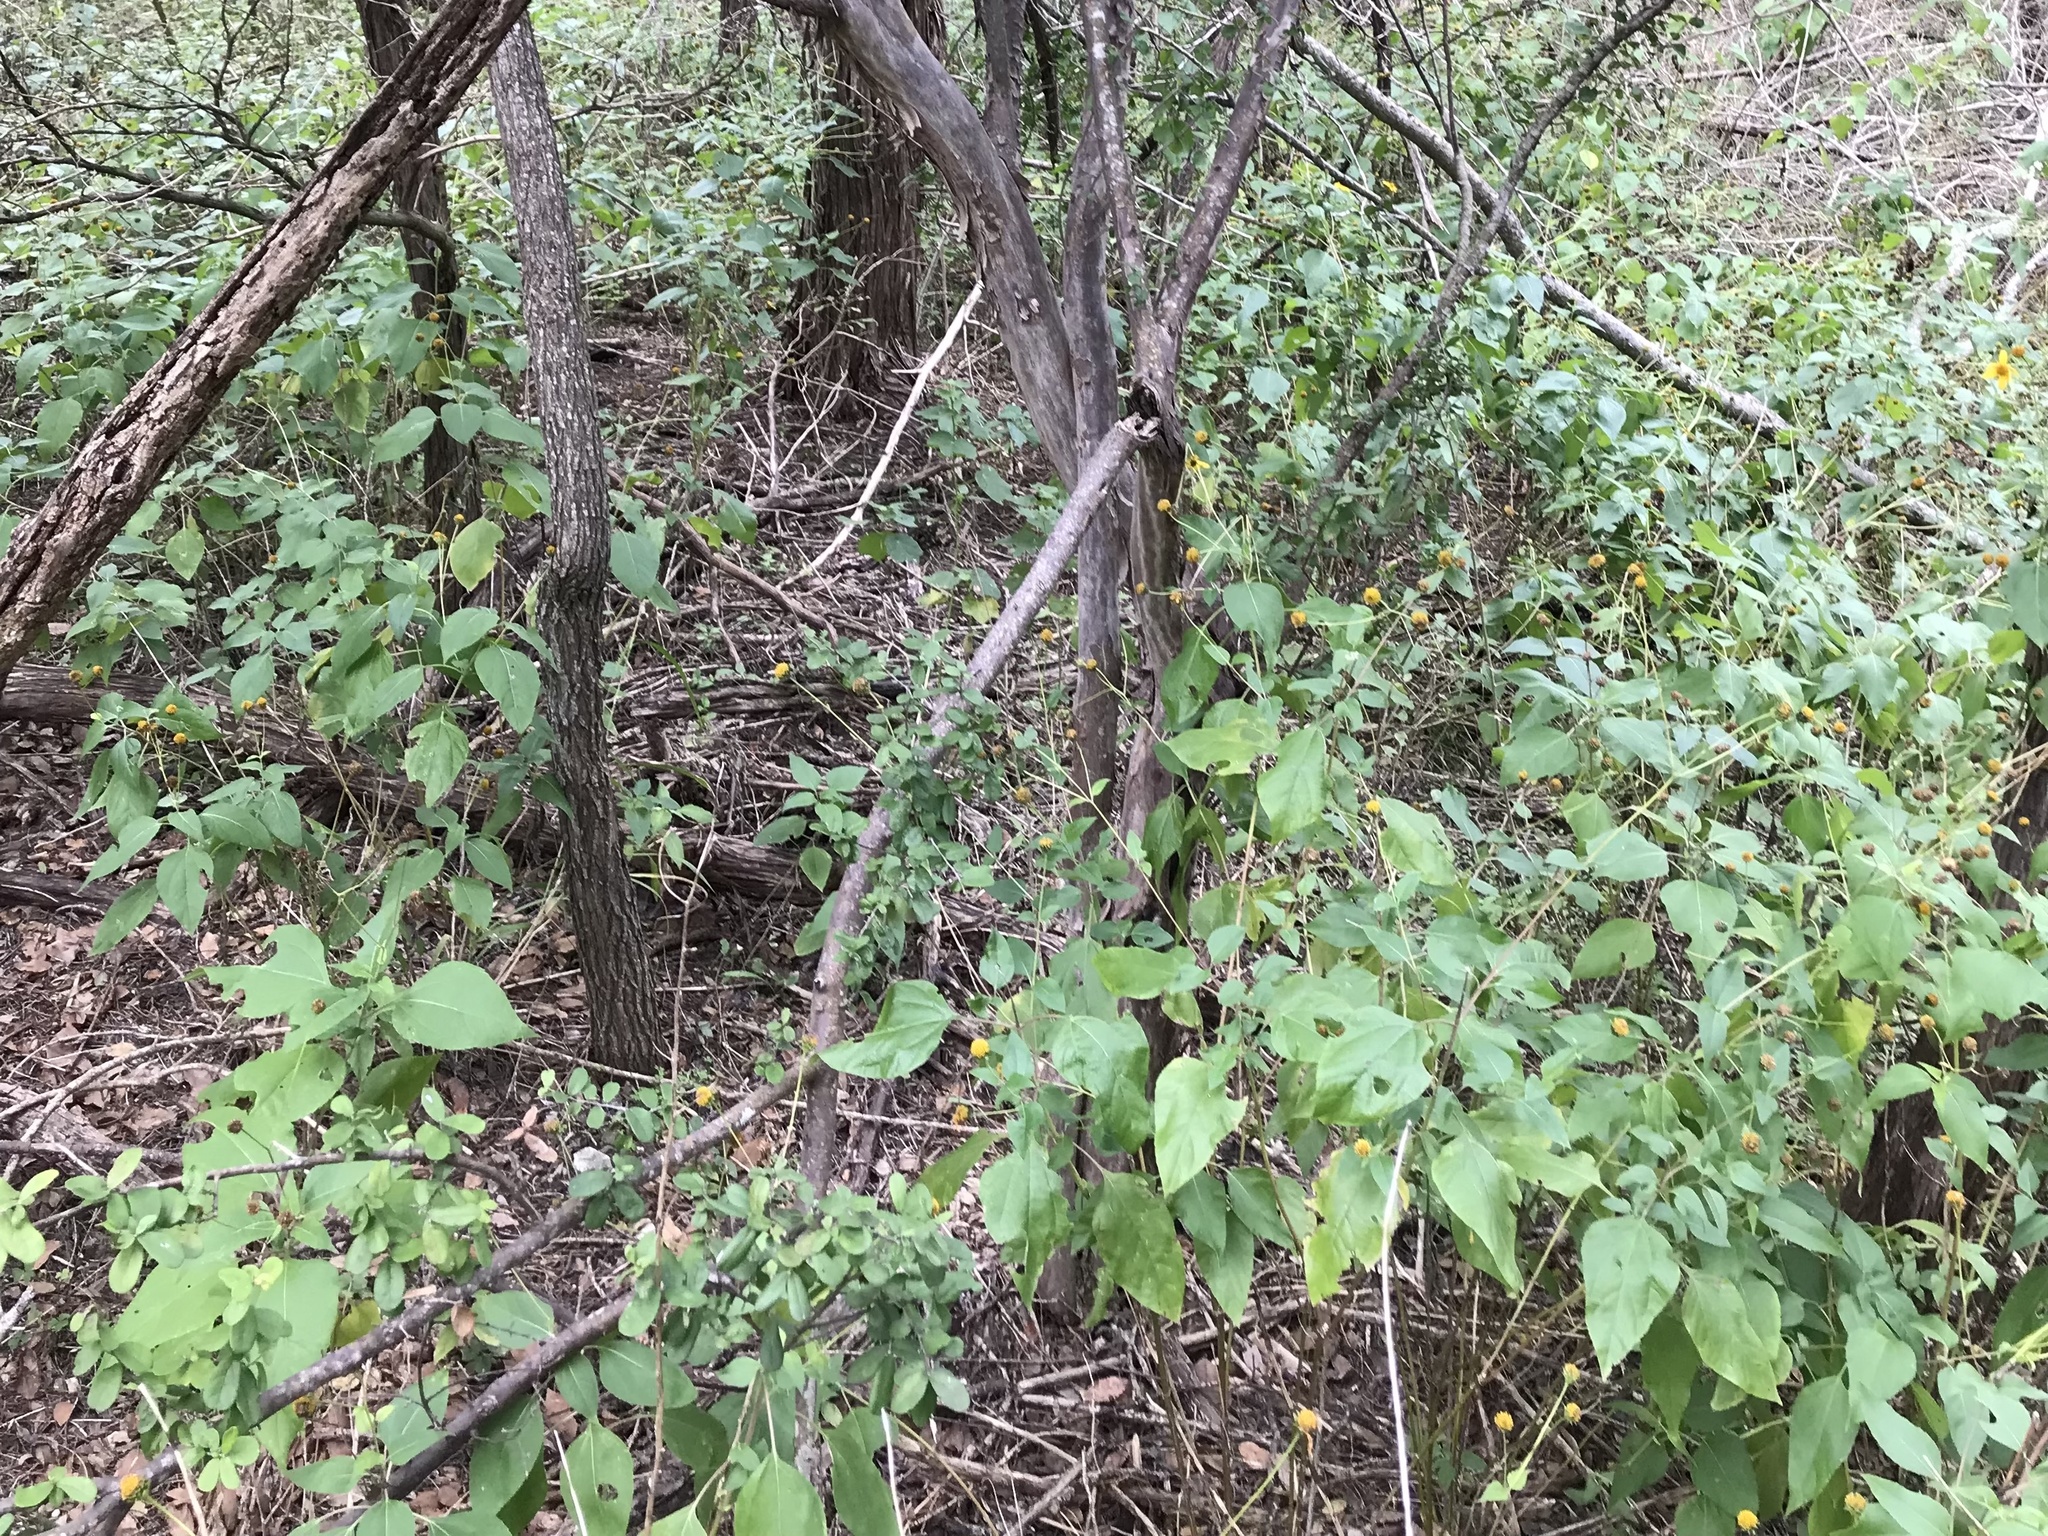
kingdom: Plantae
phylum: Tracheophyta
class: Magnoliopsida
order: Ericales
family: Ebenaceae
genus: Diospyros
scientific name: Diospyros texana
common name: Texas persimmon
